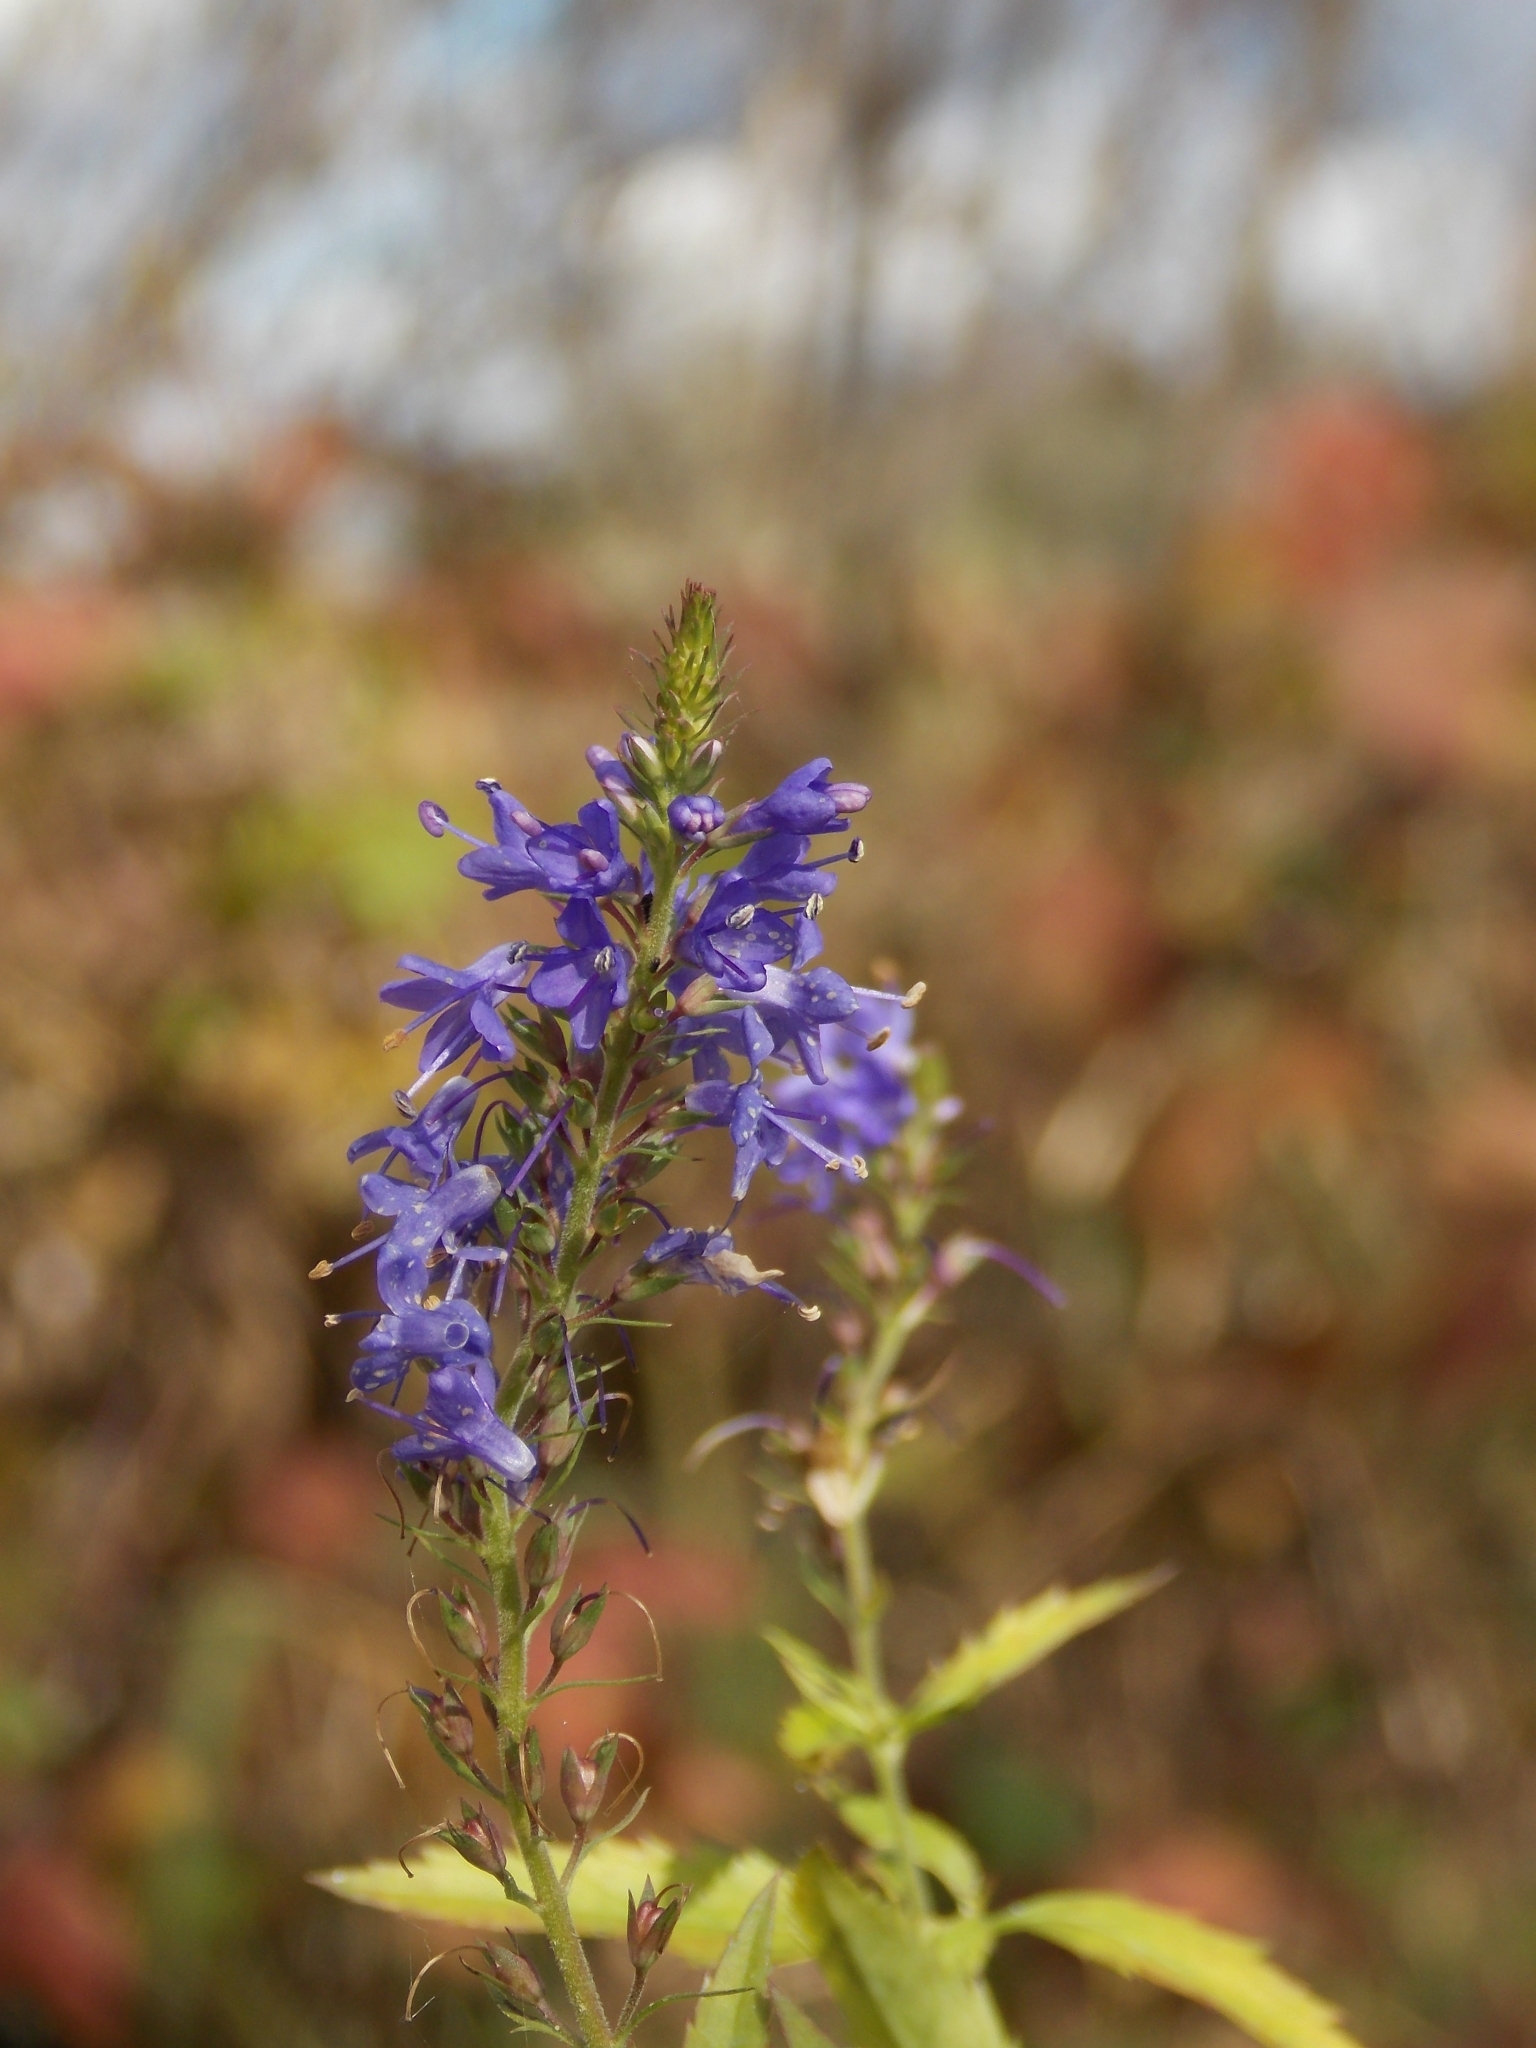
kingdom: Plantae
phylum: Tracheophyta
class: Magnoliopsida
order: Lamiales
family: Plantaginaceae
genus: Veronica
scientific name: Veronica longifolia
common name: Garden speedwell
